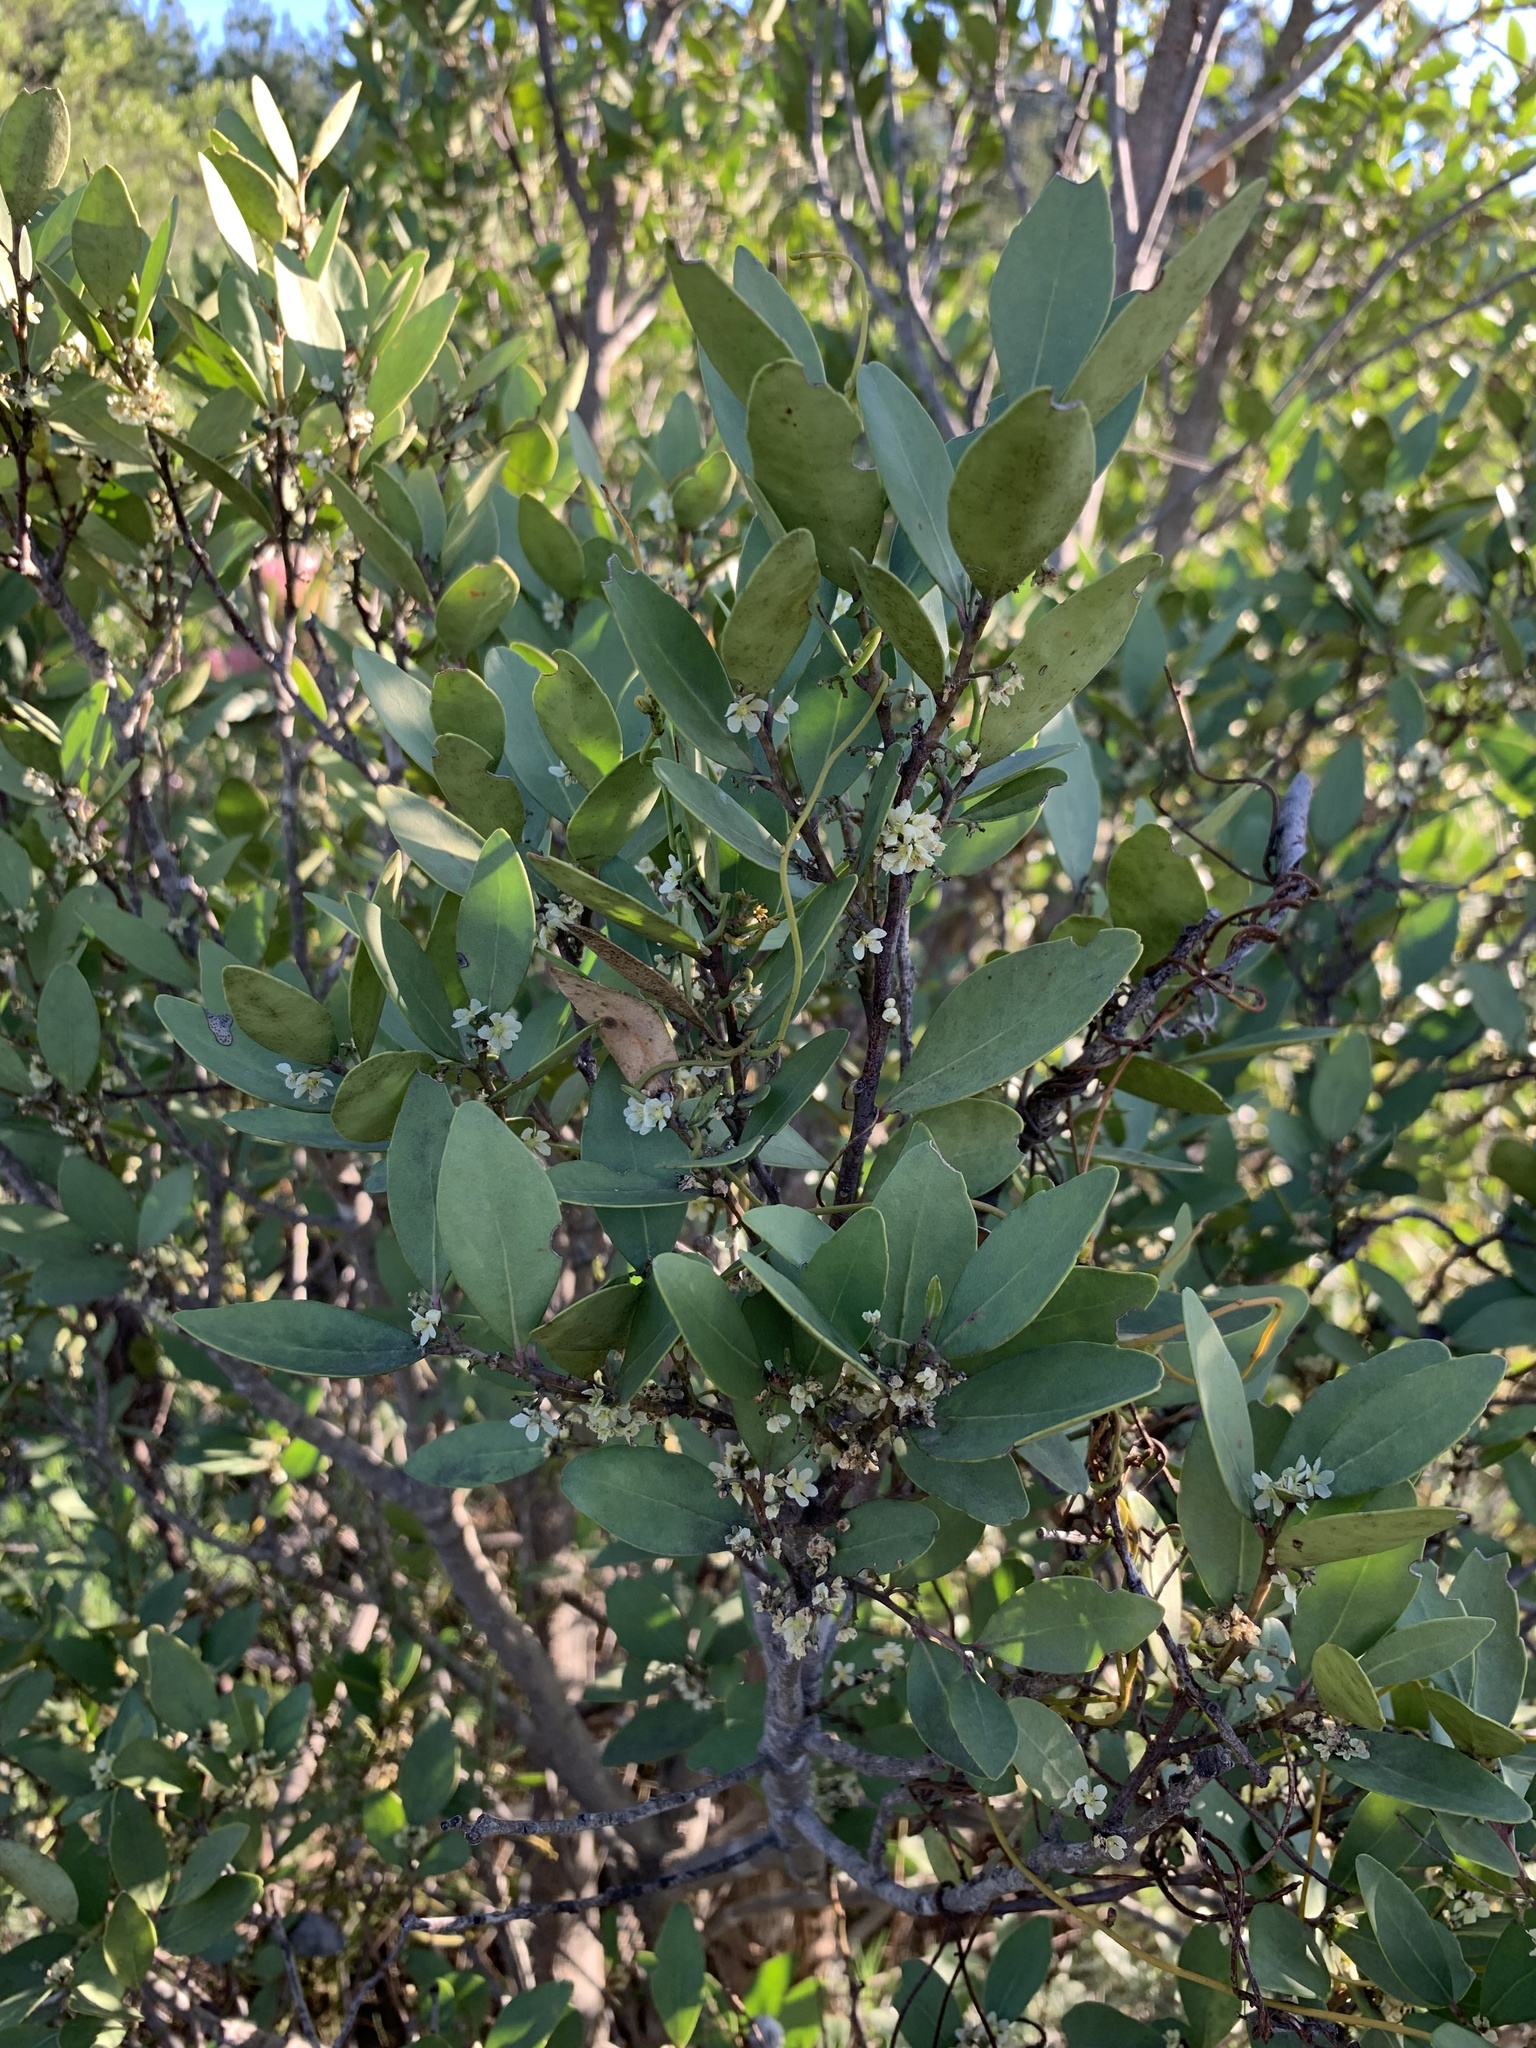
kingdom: Plantae
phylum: Tracheophyta
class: Magnoliopsida
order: Celastrales
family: Celastraceae
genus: Gymnosporia
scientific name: Gymnosporia laurina
